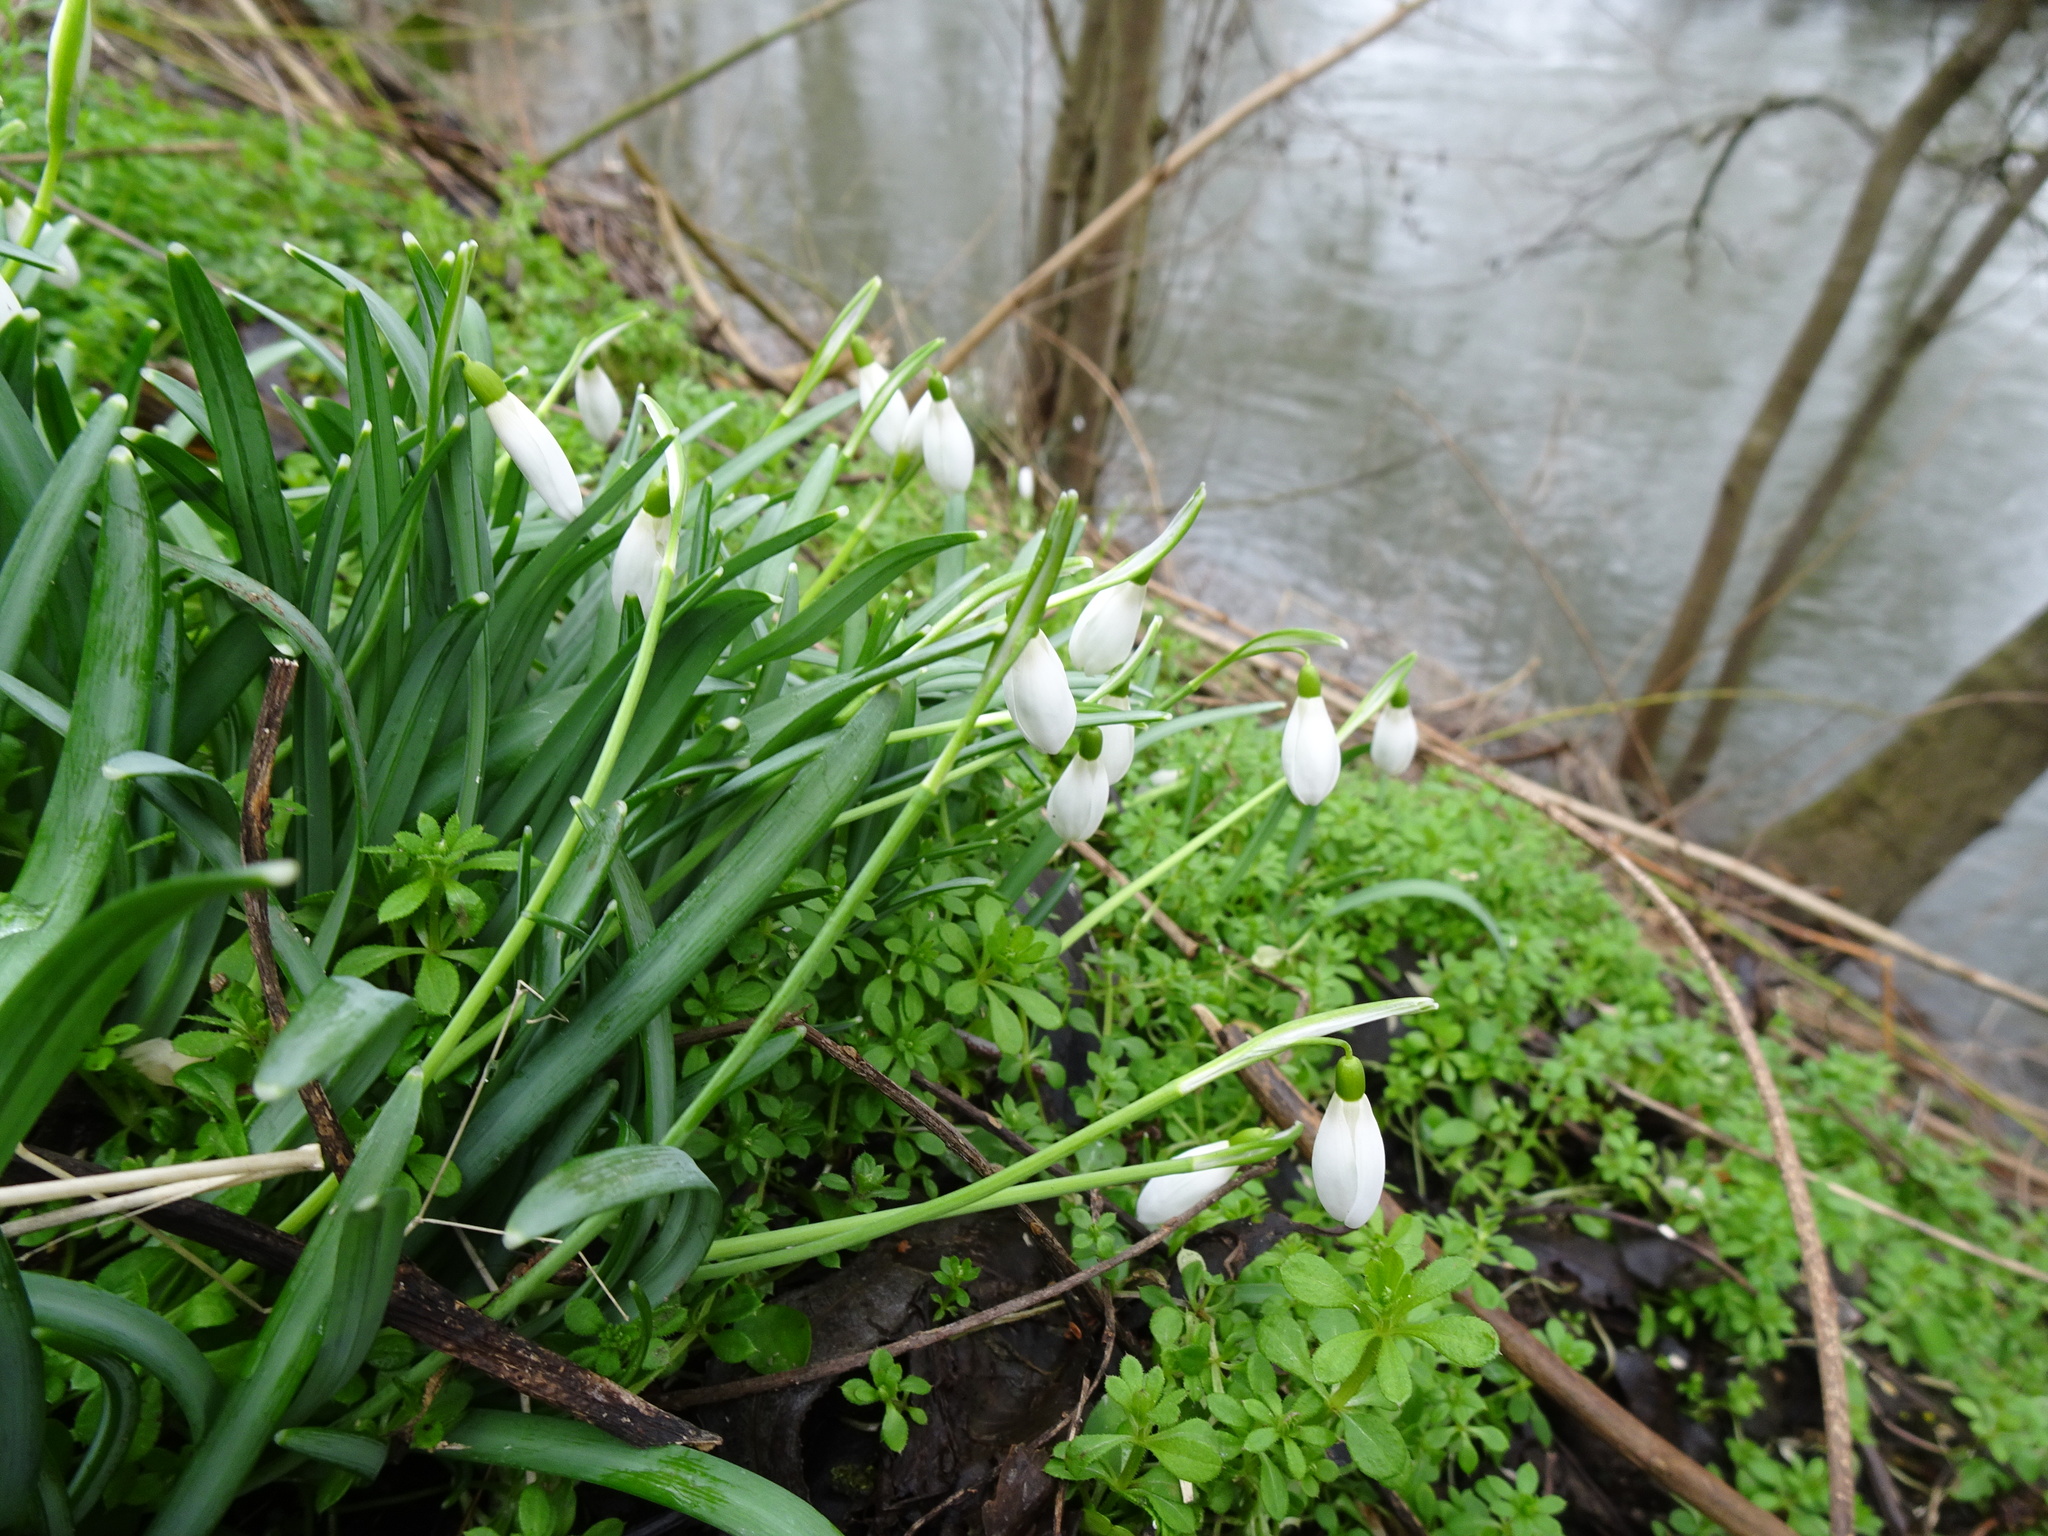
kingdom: Plantae
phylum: Tracheophyta
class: Liliopsida
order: Asparagales
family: Amaryllidaceae
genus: Galanthus
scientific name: Galanthus nivalis
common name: Snowdrop
